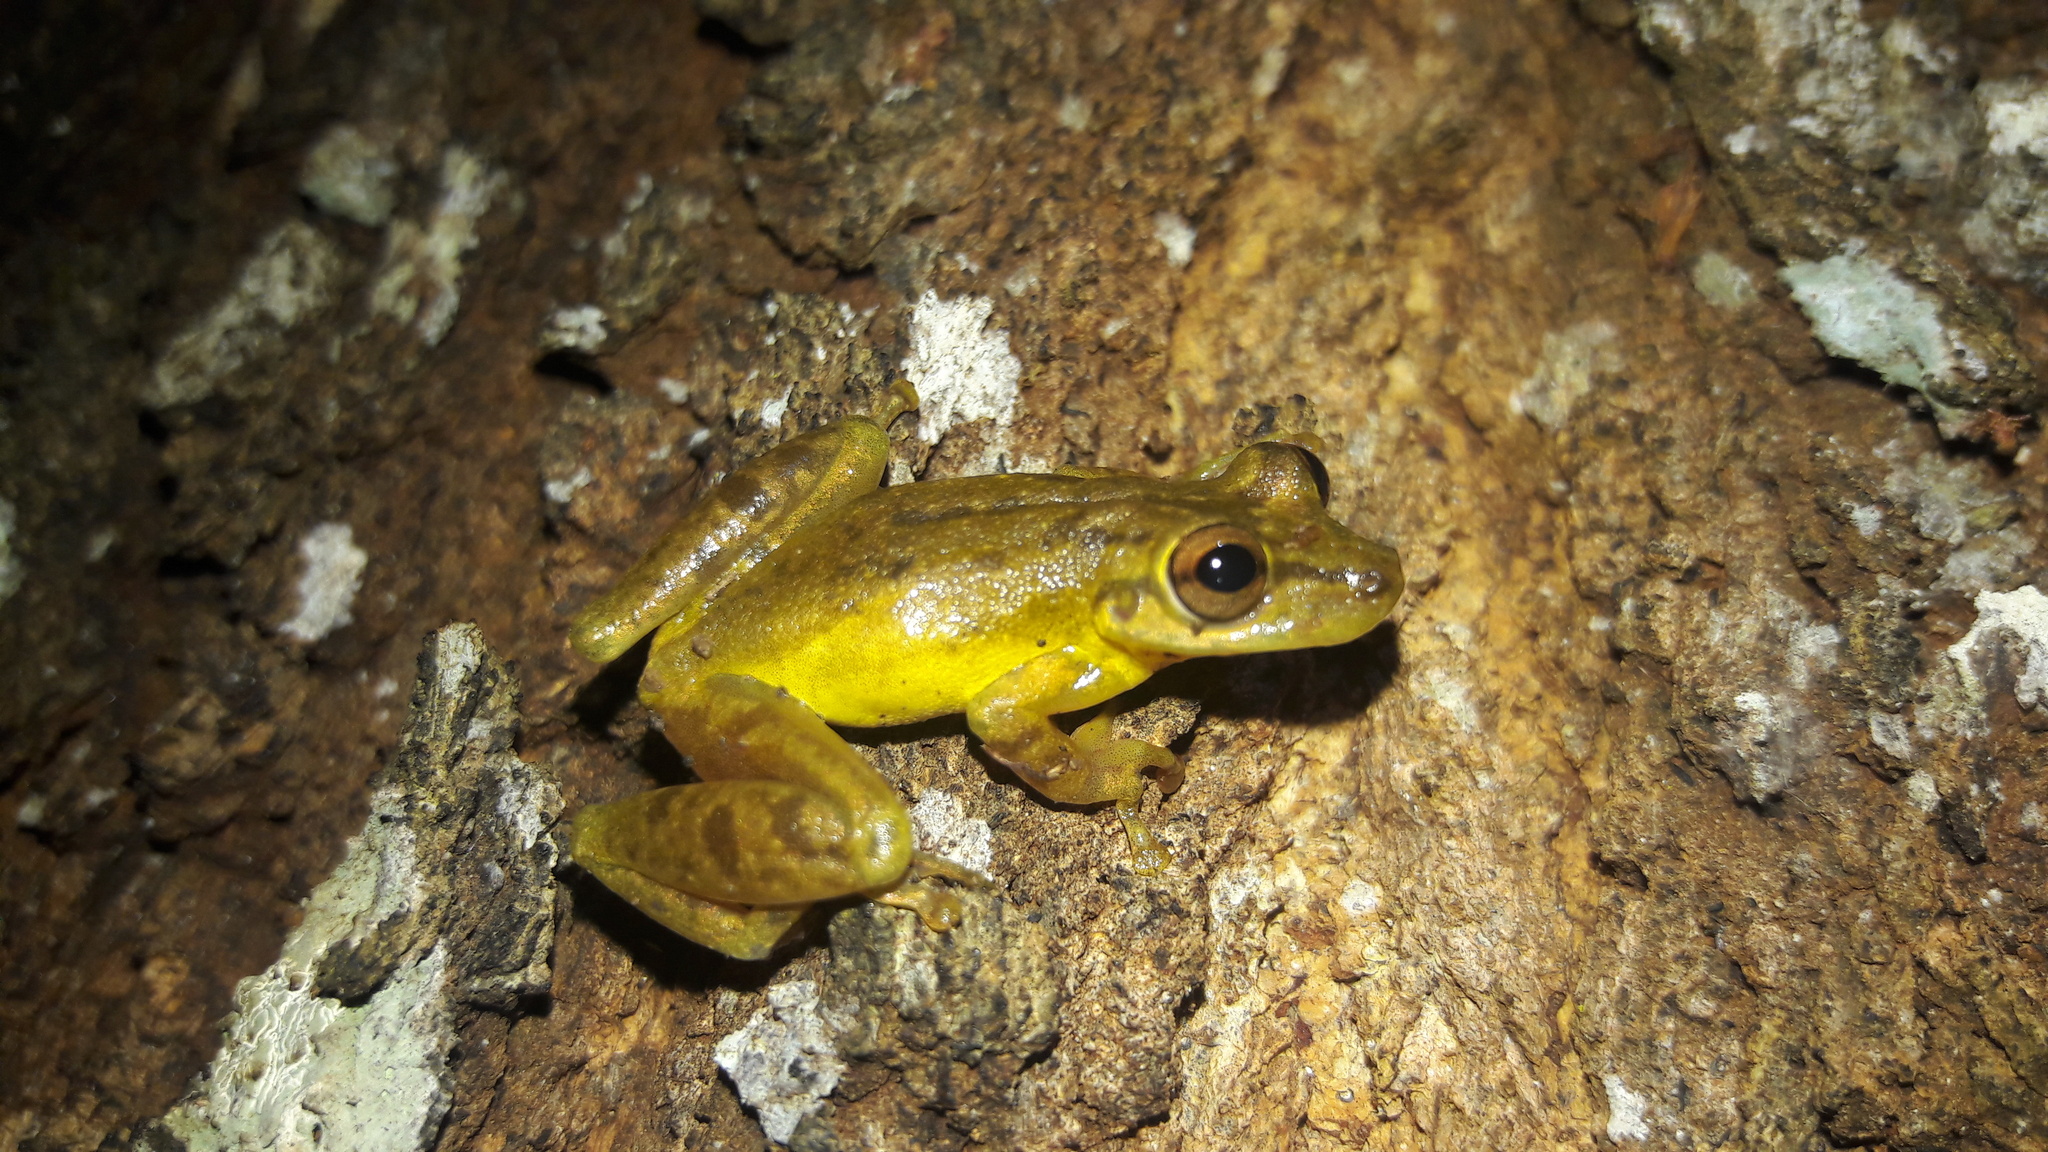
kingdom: Animalia
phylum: Chordata
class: Amphibia
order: Anura
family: Hylidae
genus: Scinax
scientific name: Scinax elaeochroa
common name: Sipurio snouted treefrog
